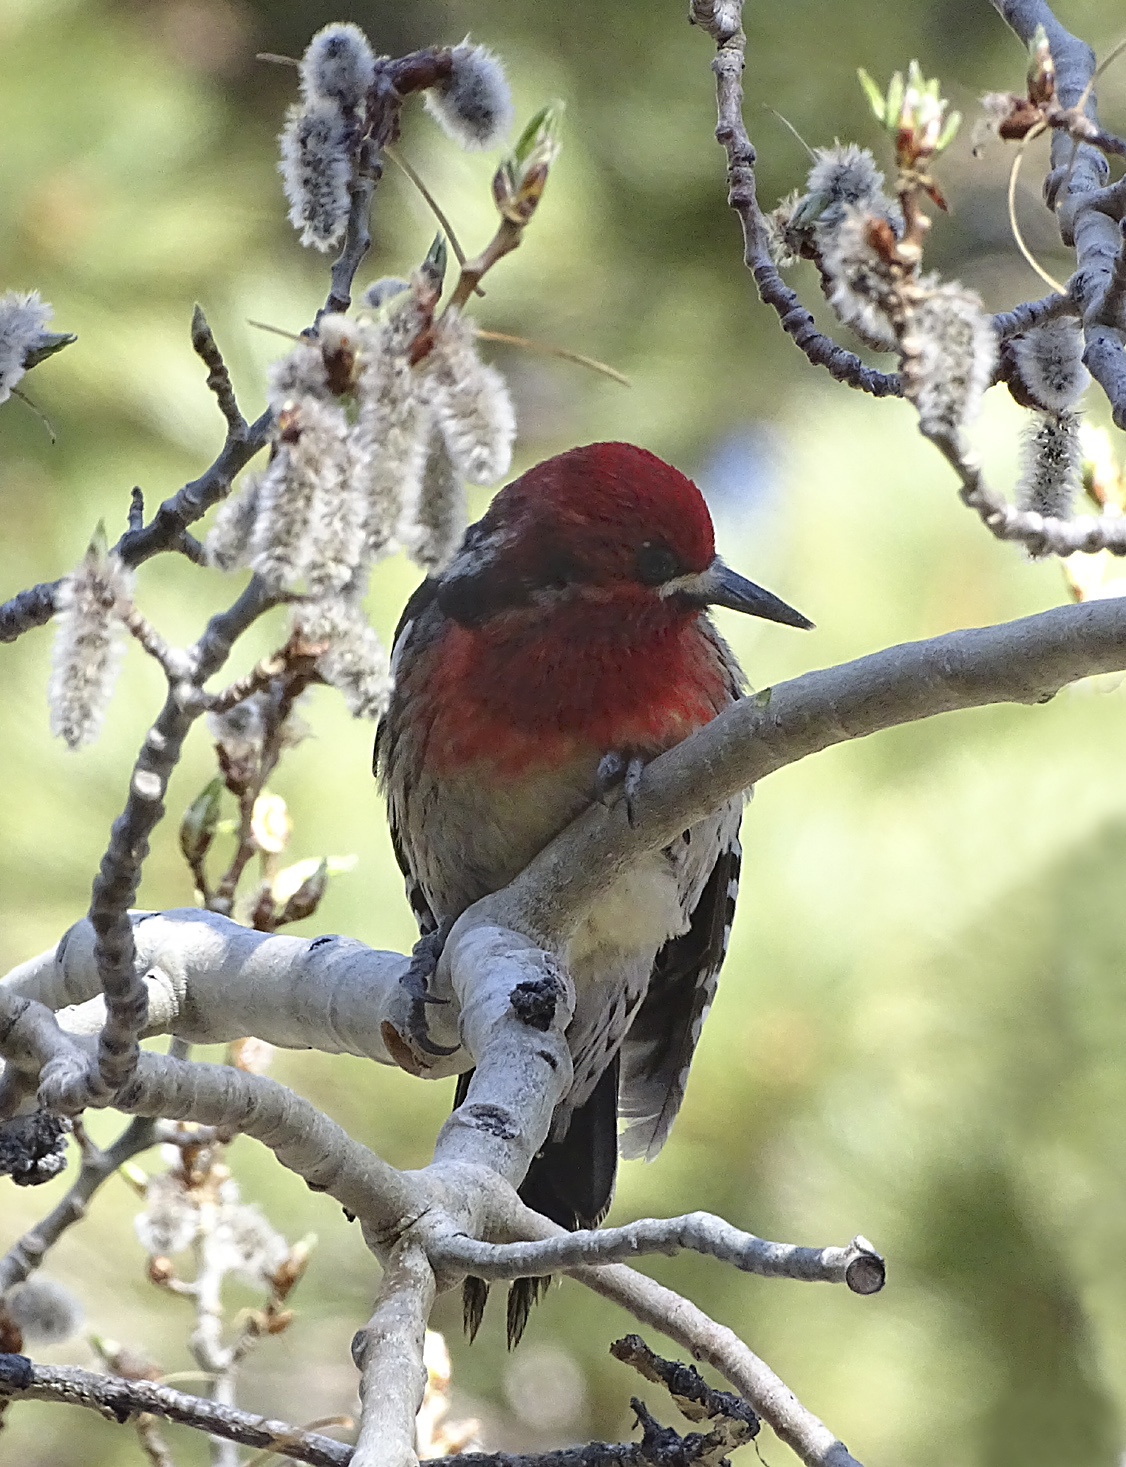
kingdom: Animalia
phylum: Chordata
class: Aves
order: Piciformes
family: Picidae
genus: Sphyrapicus
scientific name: Sphyrapicus ruber
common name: Red-breasted sapsucker
